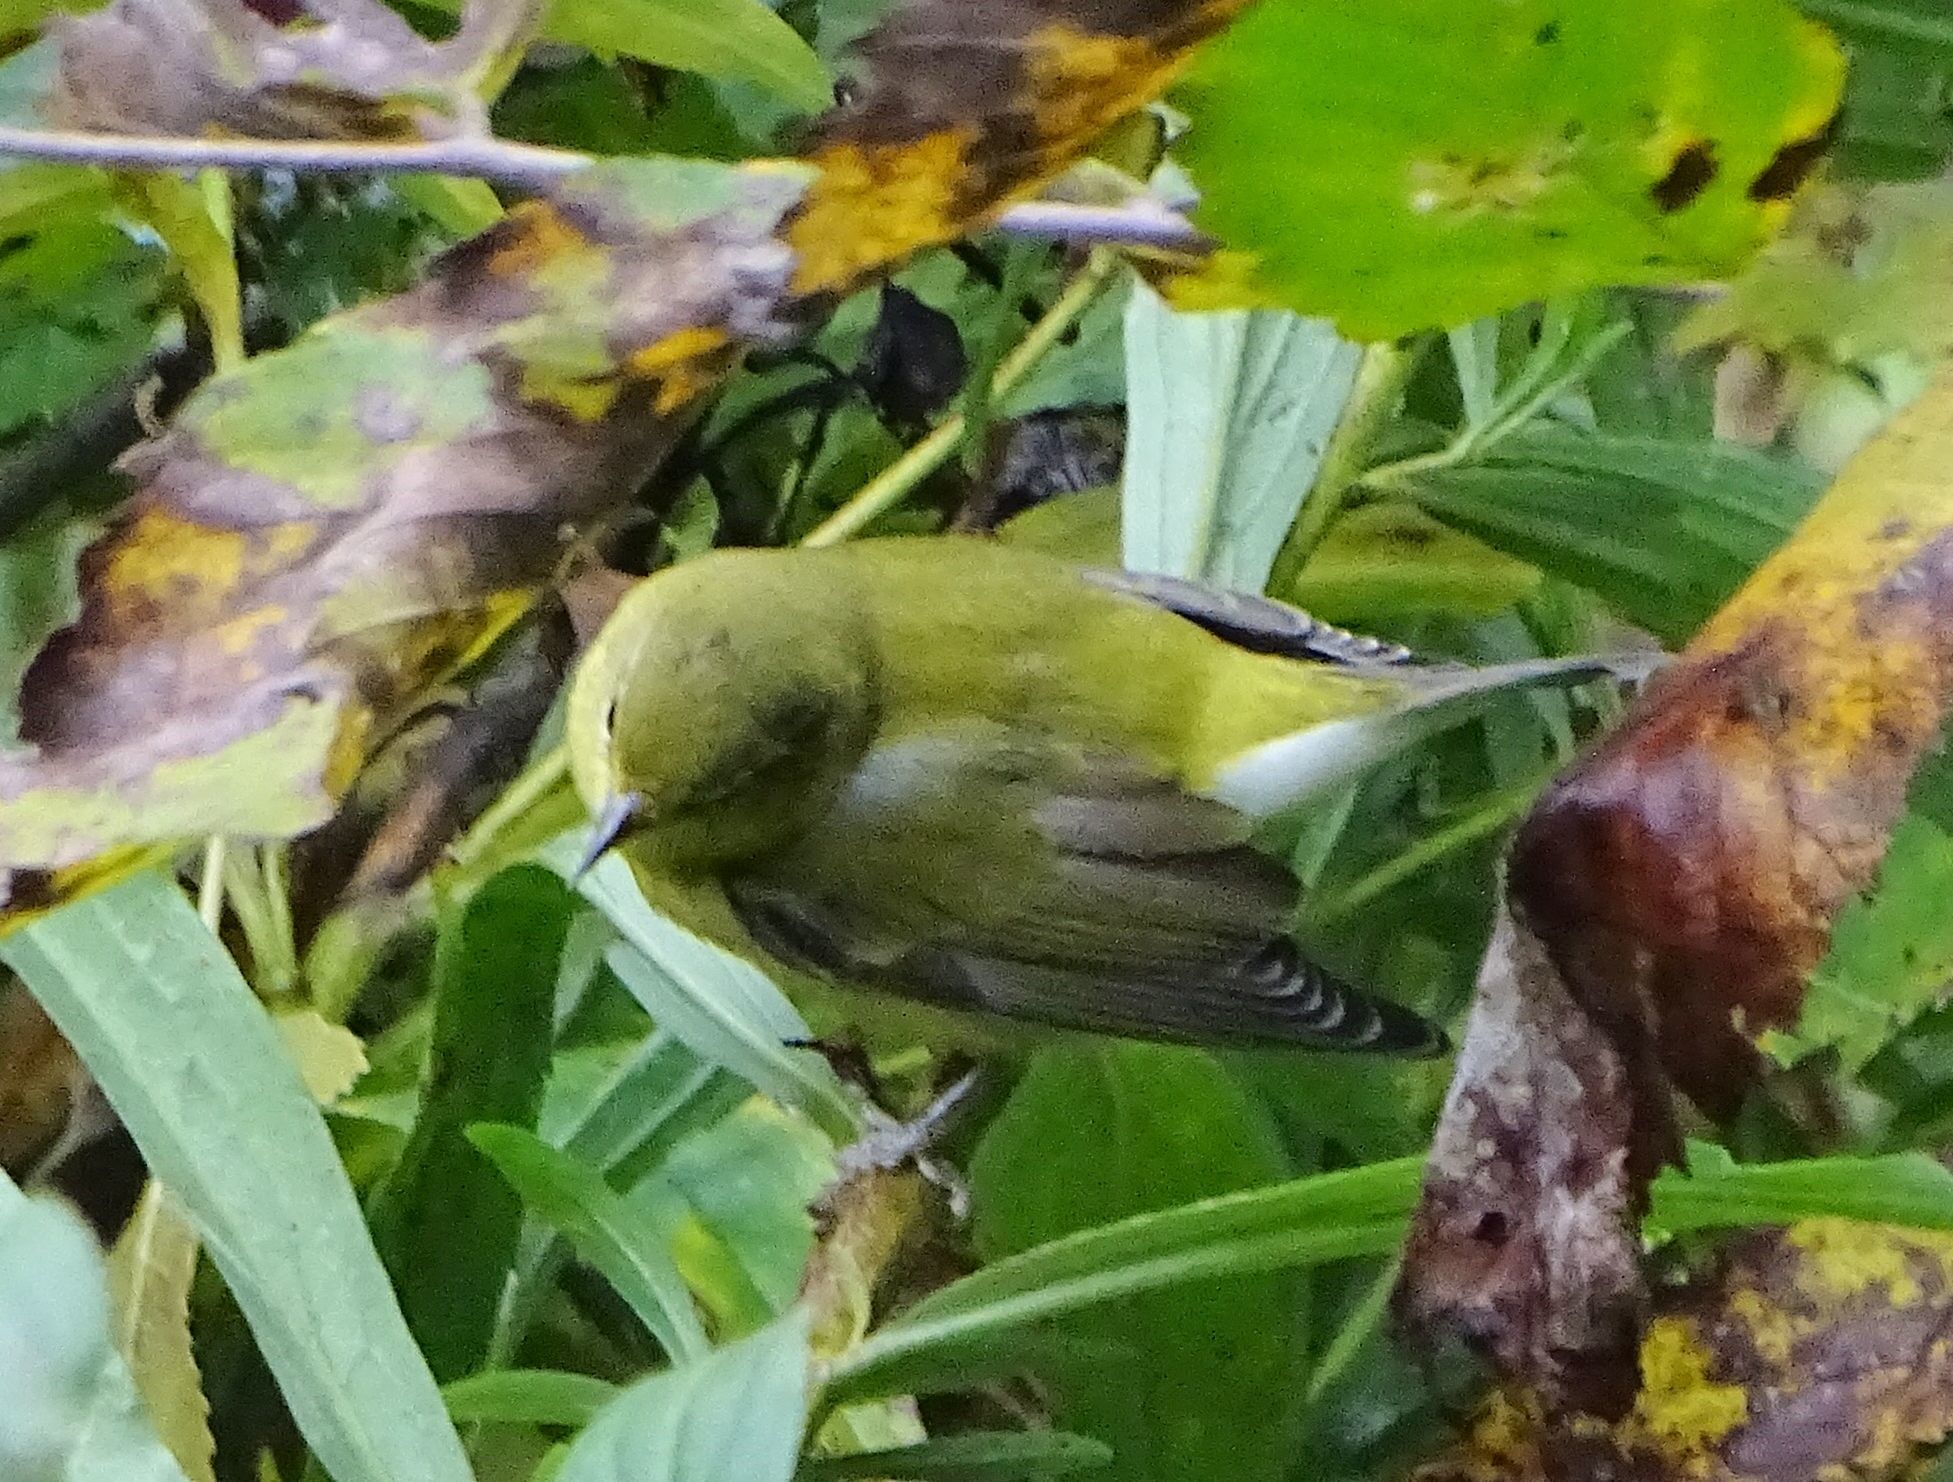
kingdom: Animalia
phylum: Chordata
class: Aves
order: Passeriformes
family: Parulidae
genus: Leiothlypis
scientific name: Leiothlypis peregrina
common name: Tennessee warbler
